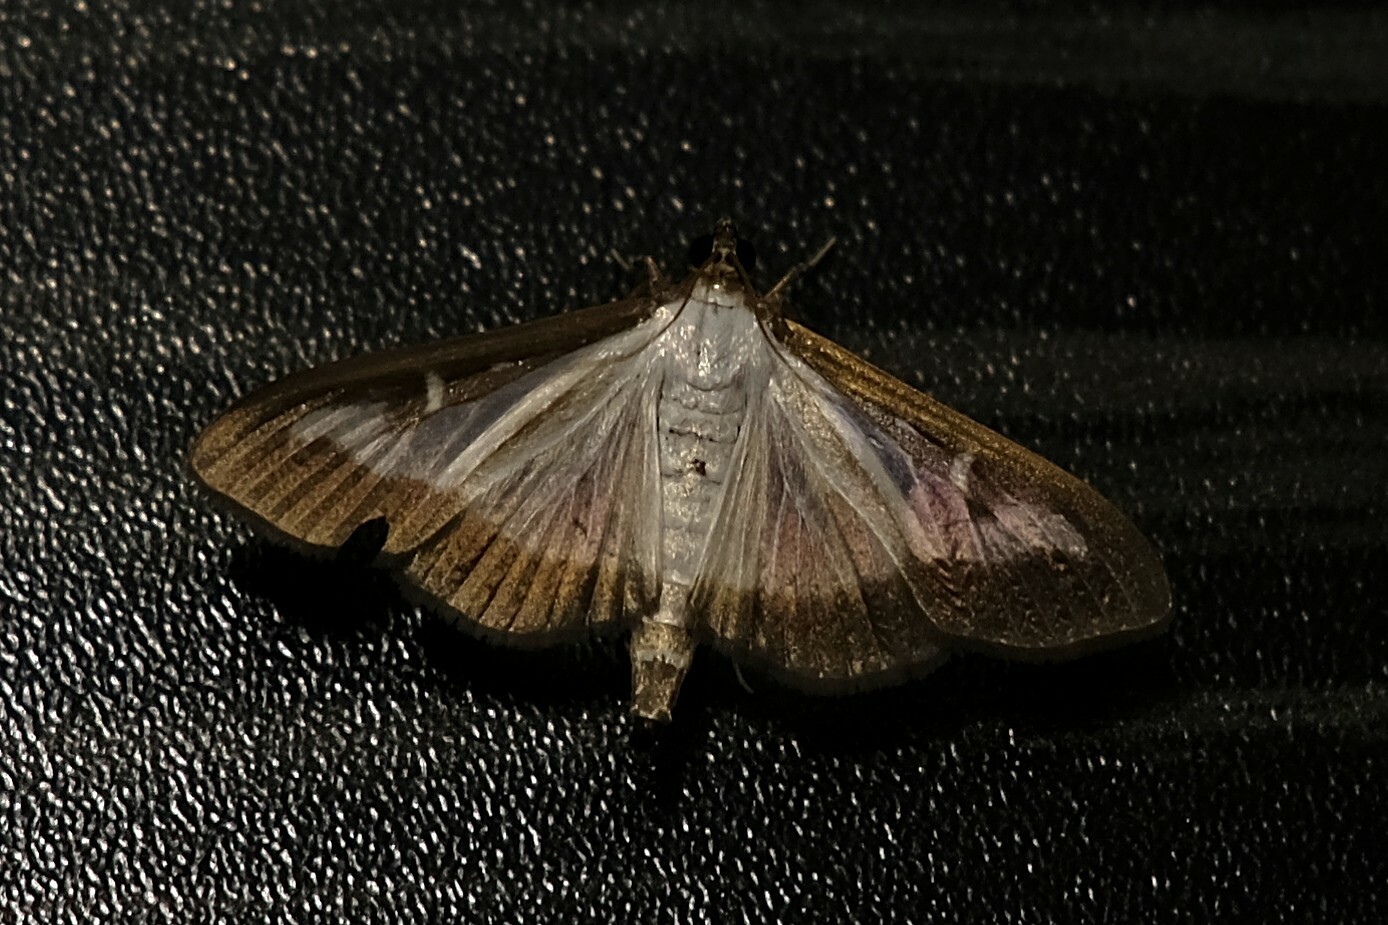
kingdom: Animalia
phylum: Arthropoda
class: Insecta
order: Lepidoptera
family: Crambidae
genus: Cydalima
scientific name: Cydalima perspectalis
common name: Box tree moth
